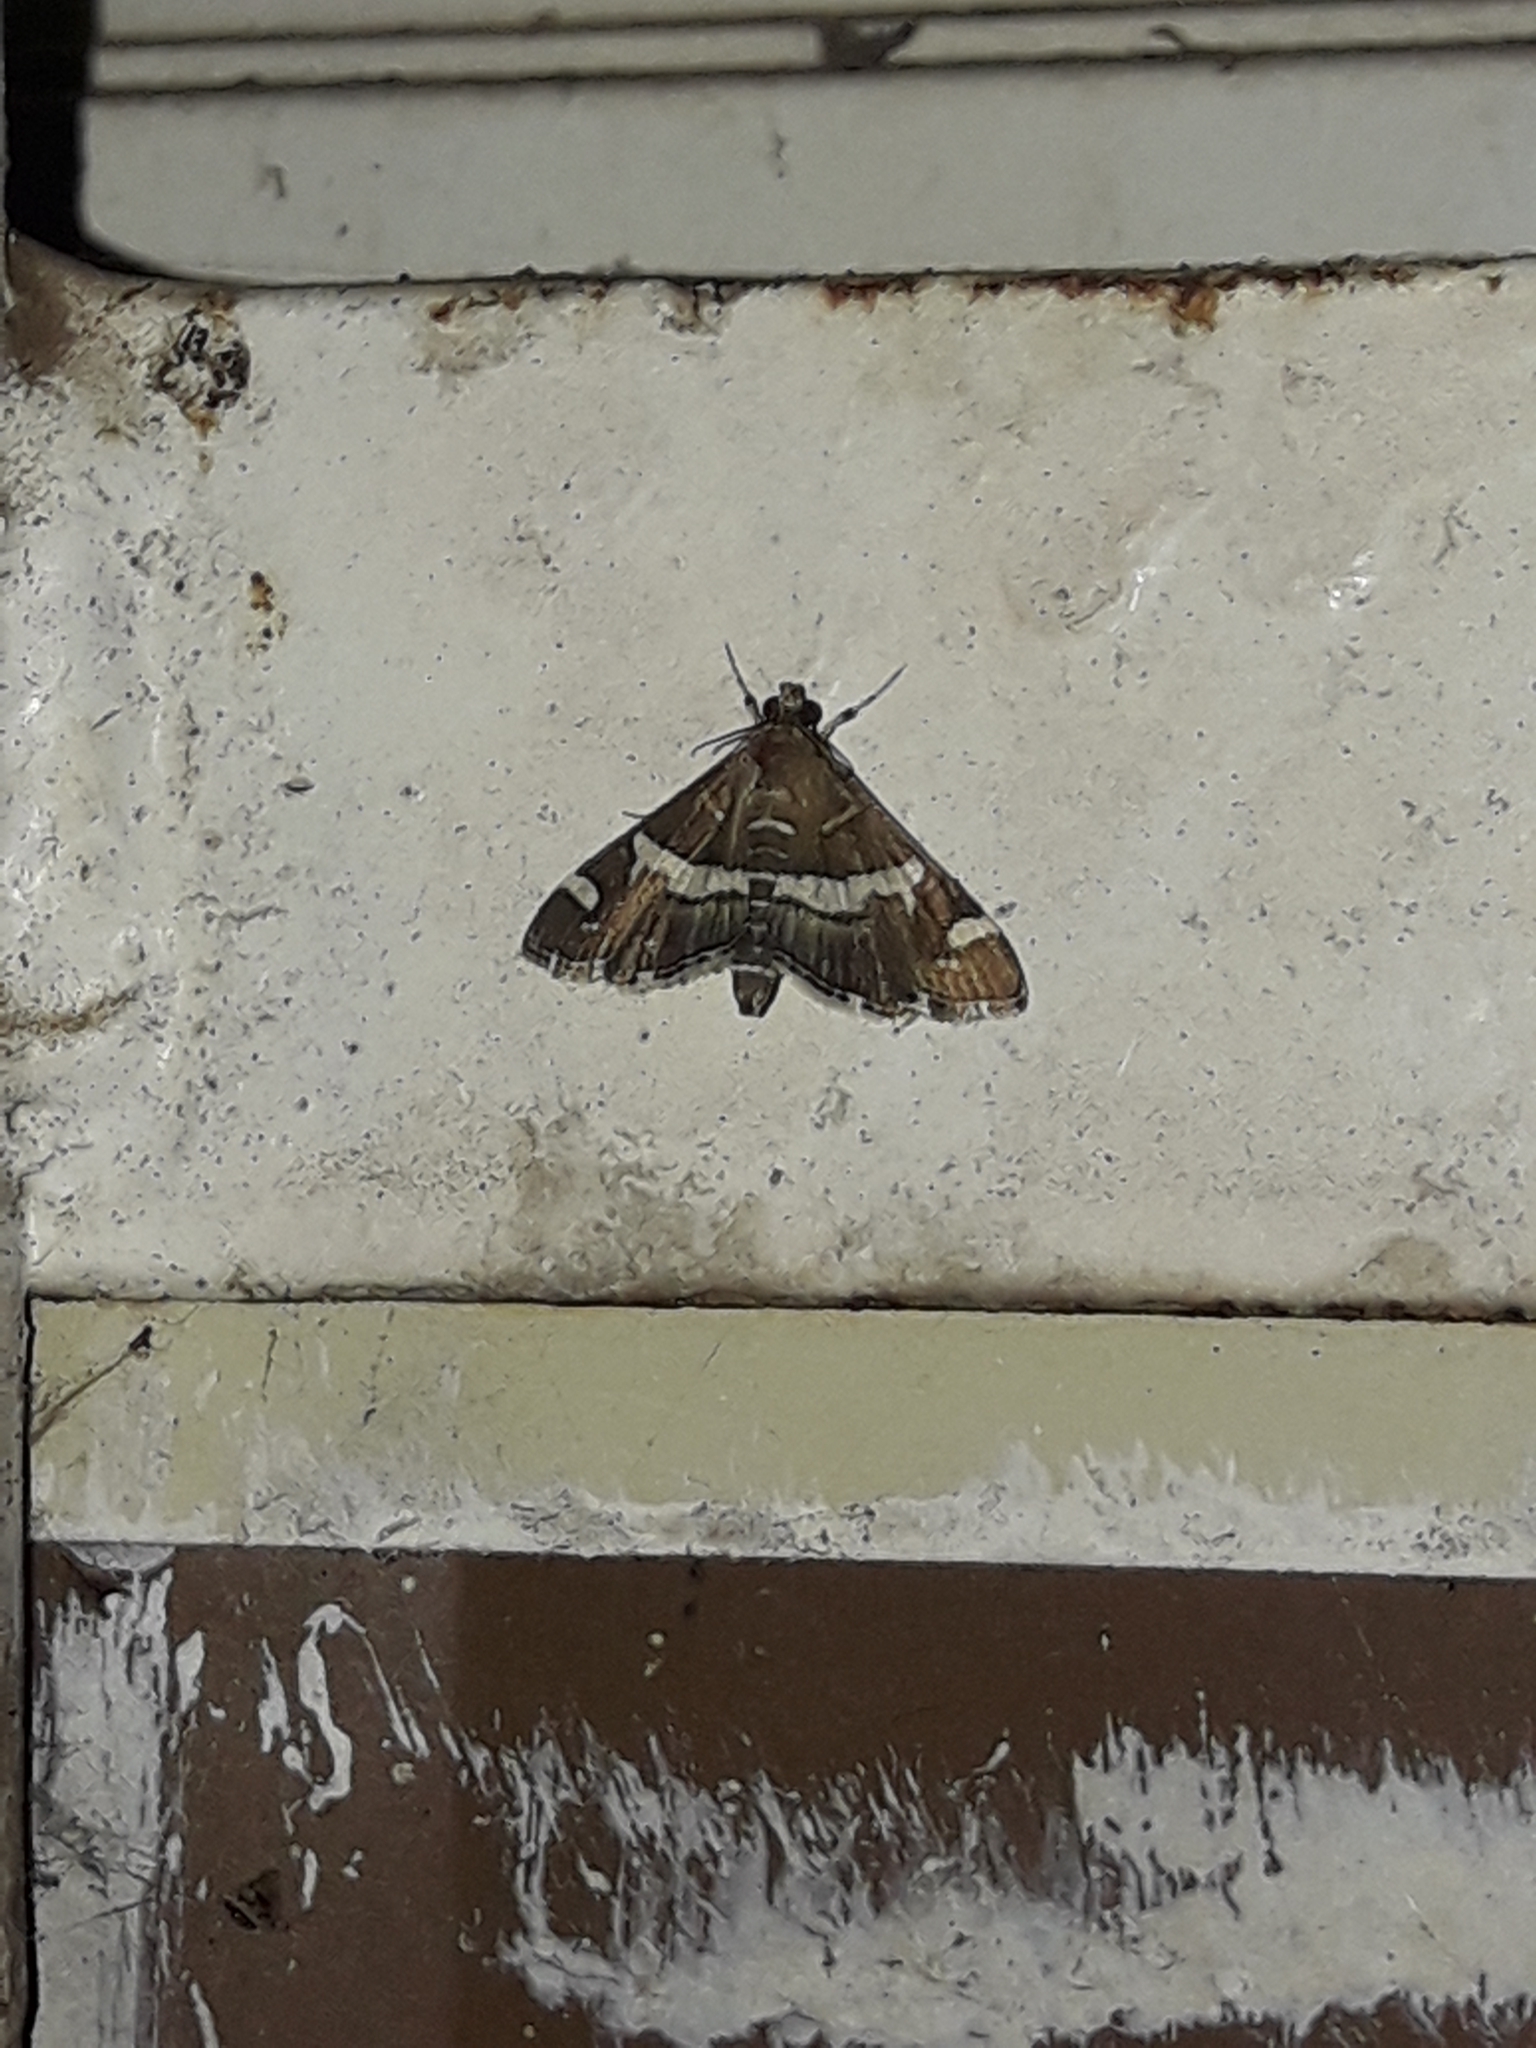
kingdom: Animalia
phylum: Arthropoda
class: Insecta
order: Lepidoptera
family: Crambidae
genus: Spoladea
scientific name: Spoladea recurvalis
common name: Beet webworm moth
